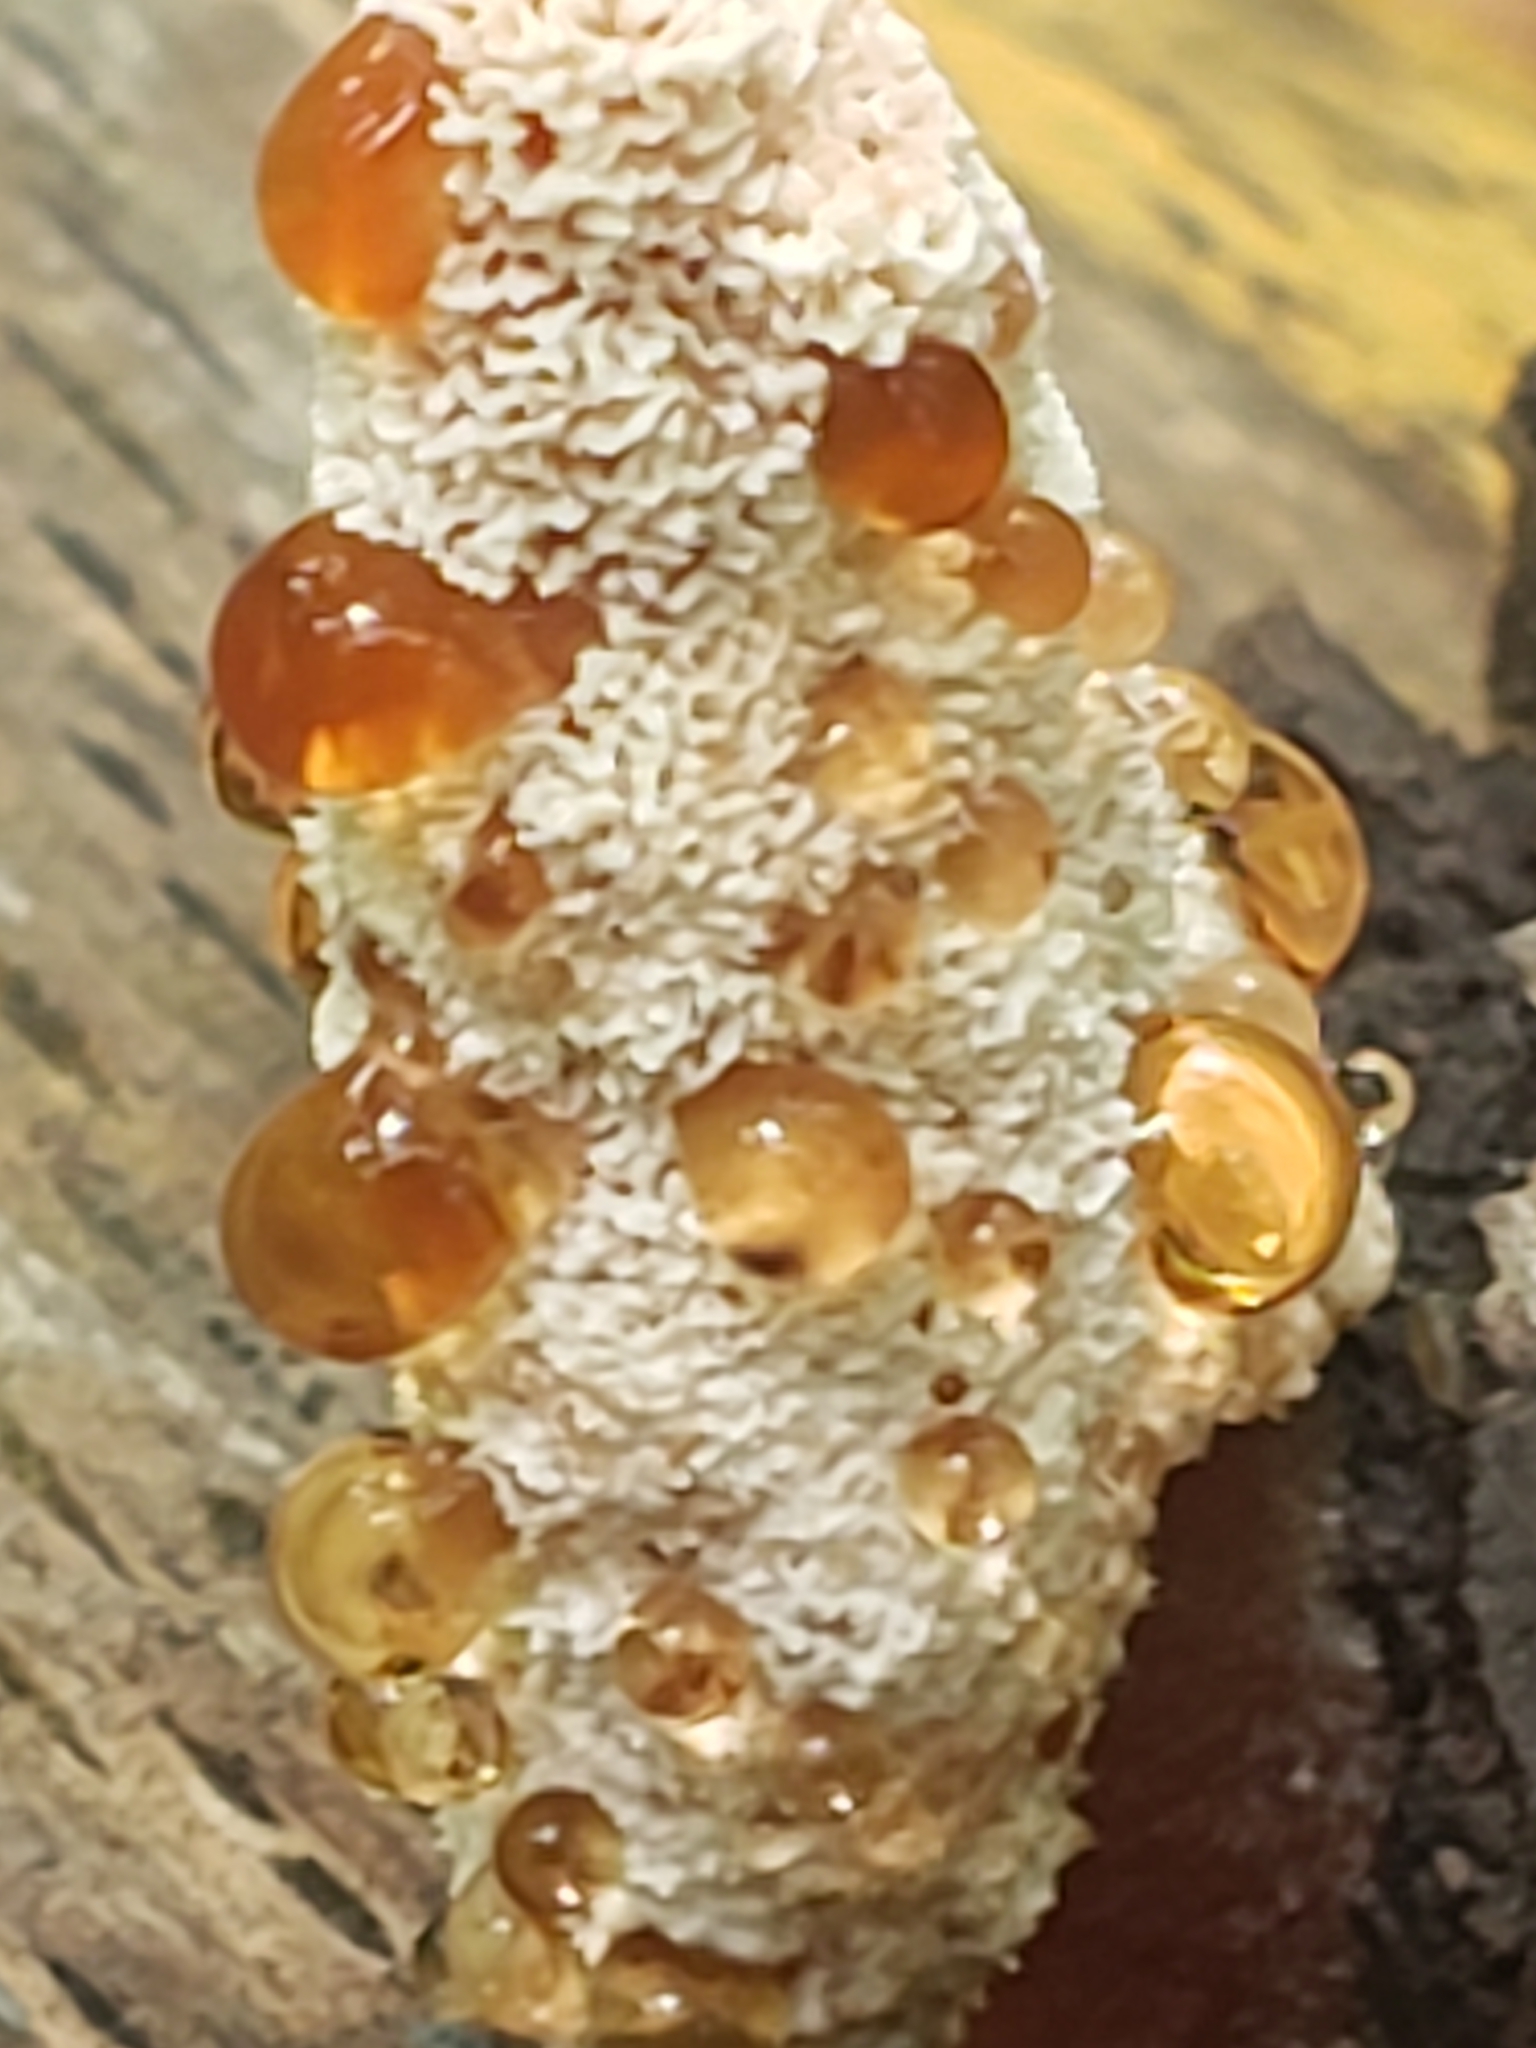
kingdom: Fungi
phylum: Basidiomycota
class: Agaricomycetes
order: Polyporales
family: Podoscyphaceae
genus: Abortiporus
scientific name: Abortiporus biennis
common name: Blushing rosette
